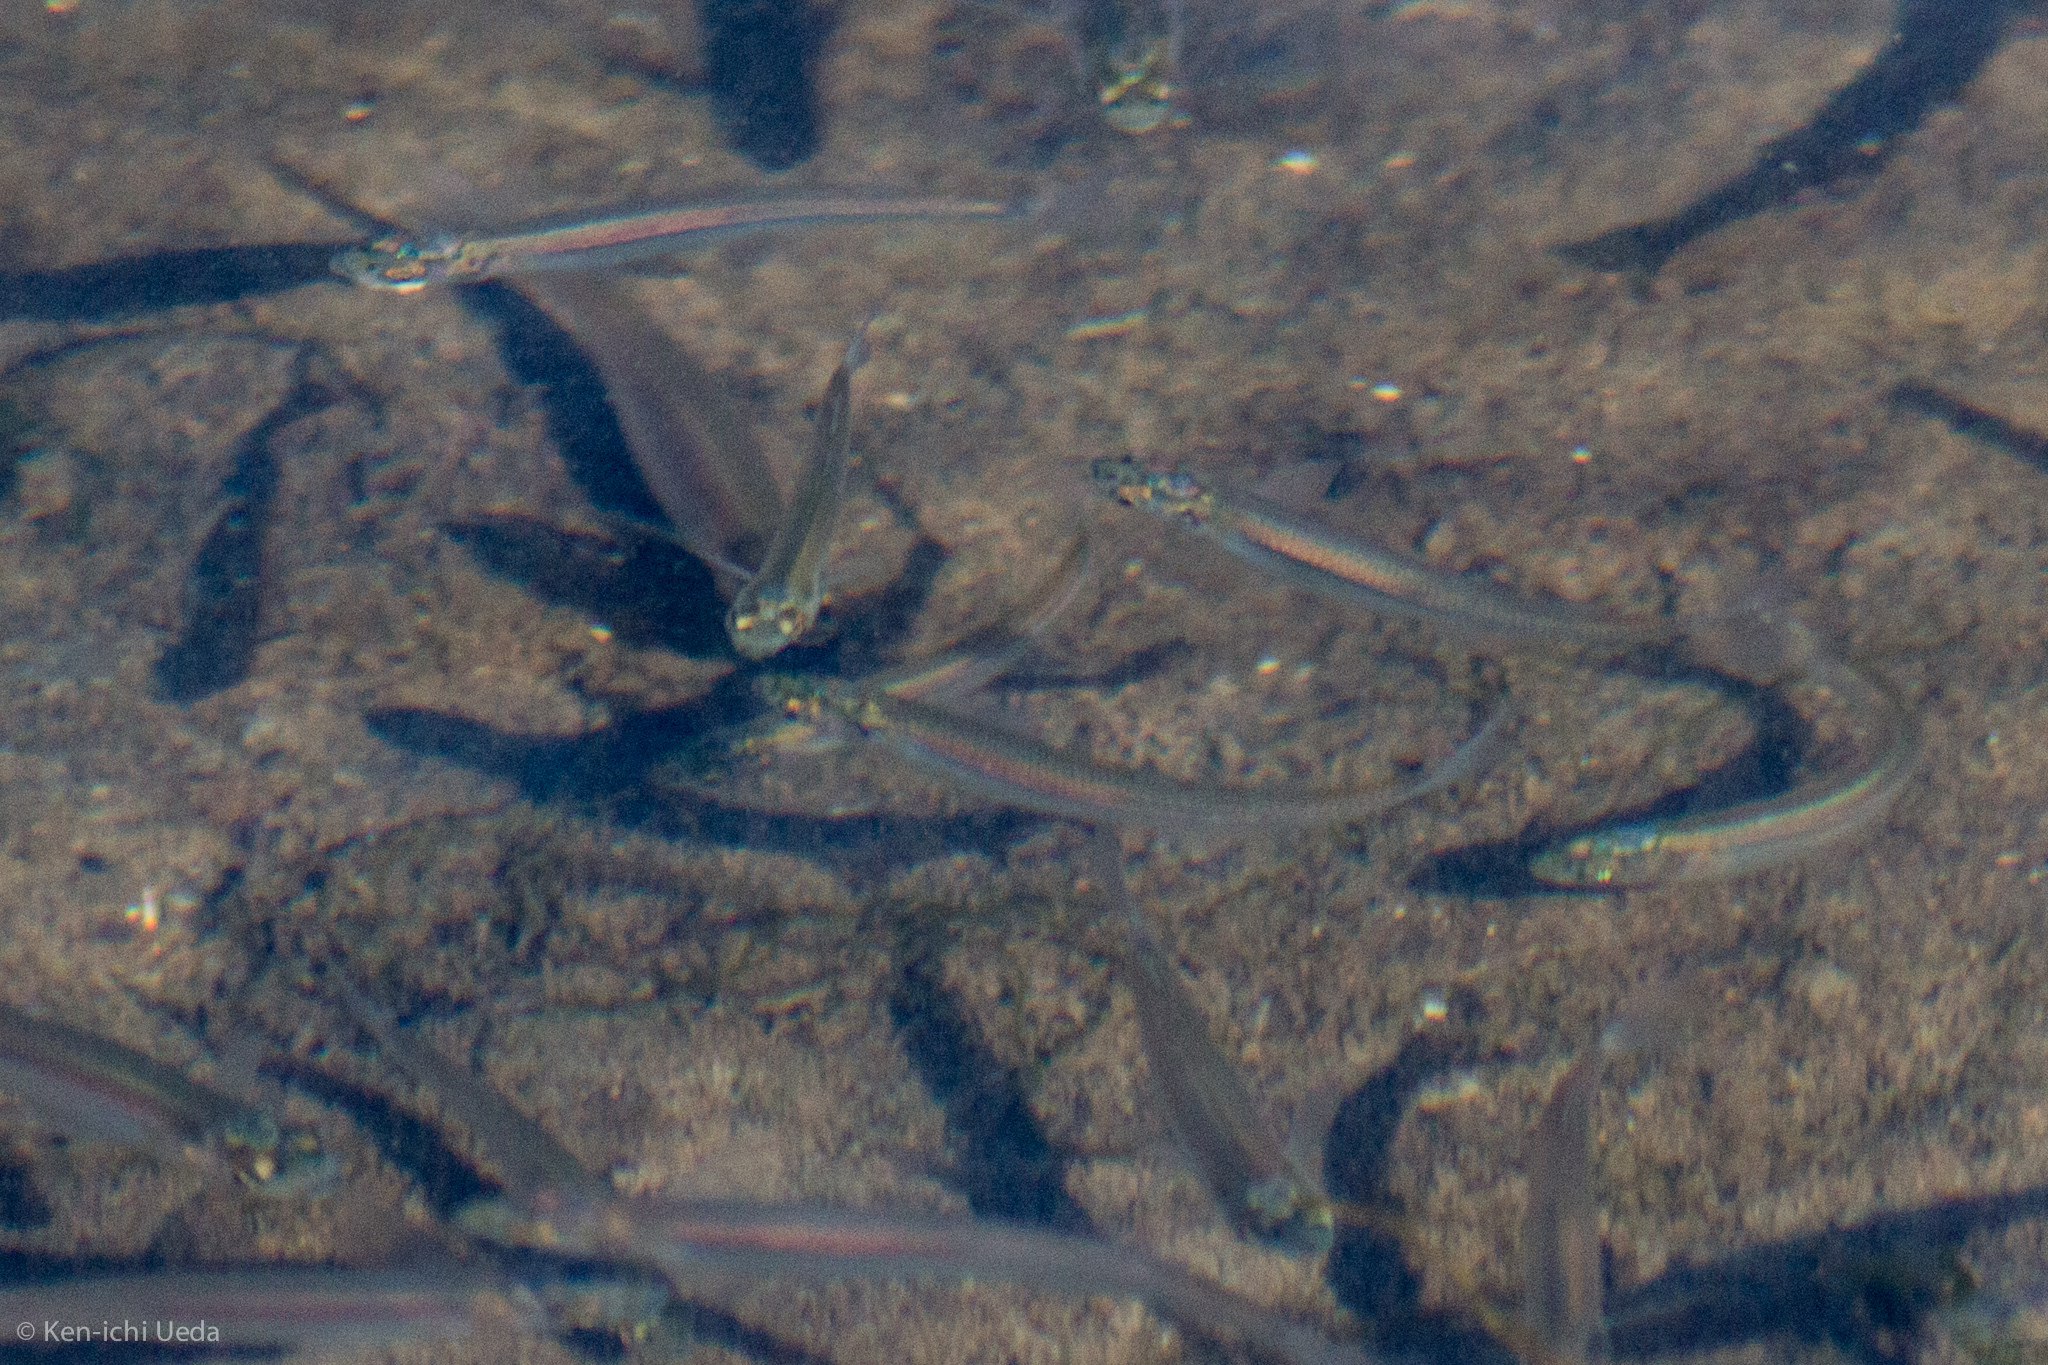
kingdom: Animalia
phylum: Chordata
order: Atheriniformes
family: Atherinopsidae
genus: Menidia
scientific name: Menidia beryllina
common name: Inland silverside
